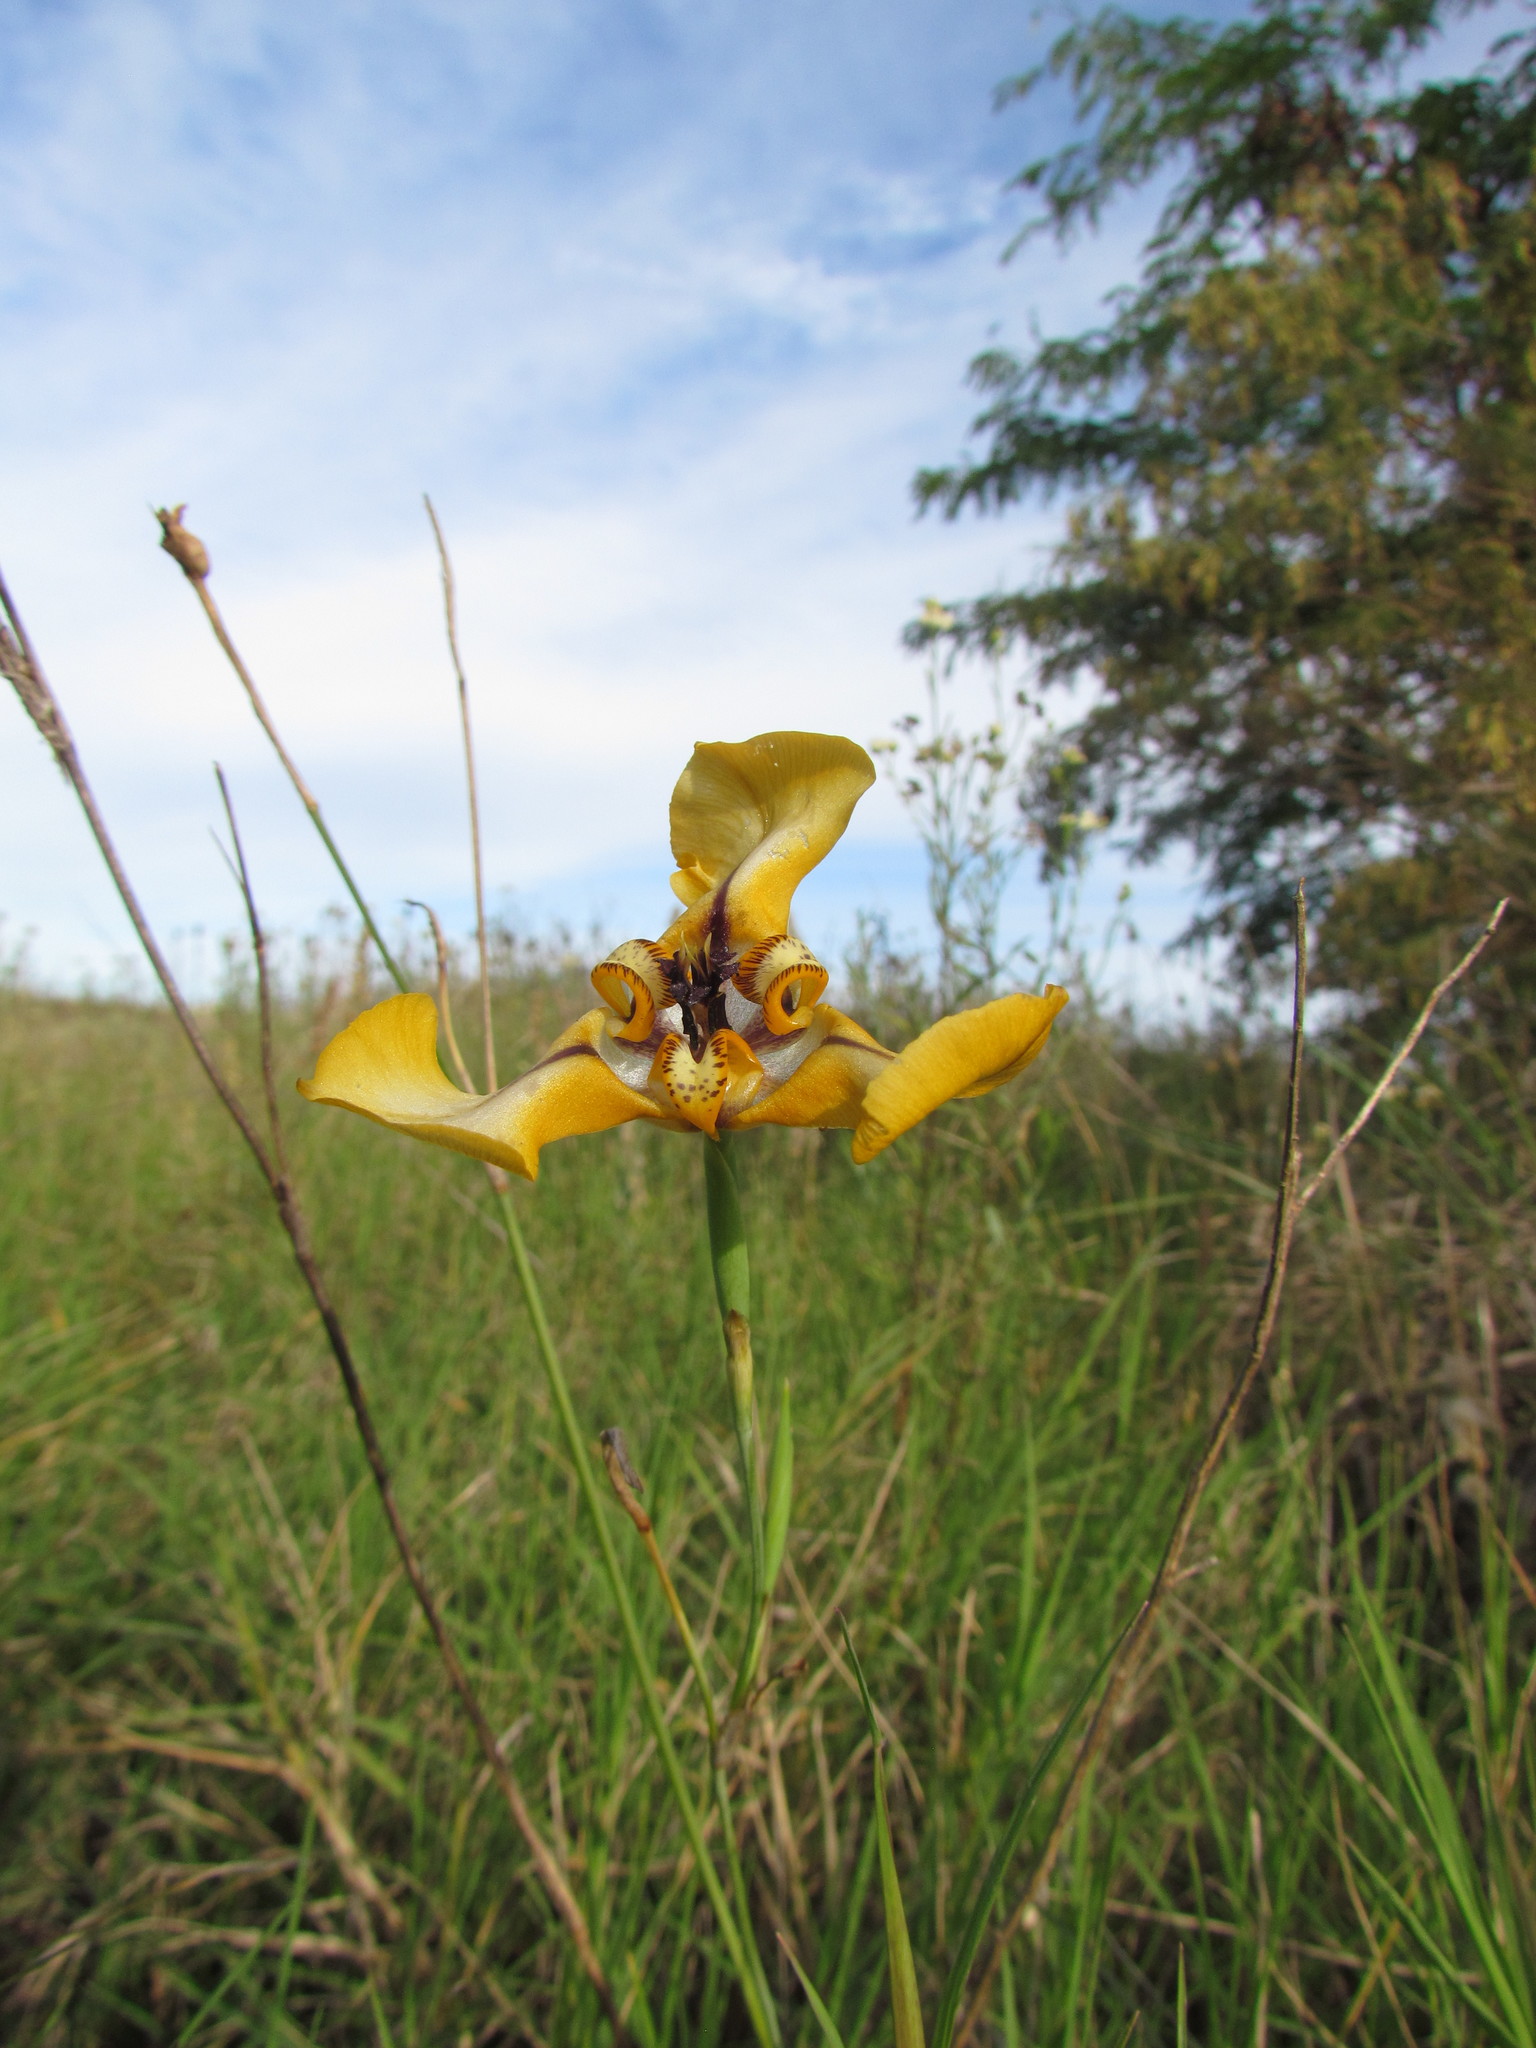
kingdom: Plantae
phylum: Tracheophyta
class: Liliopsida
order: Asparagales
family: Iridaceae
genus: Cypella
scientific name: Cypella herbertii
